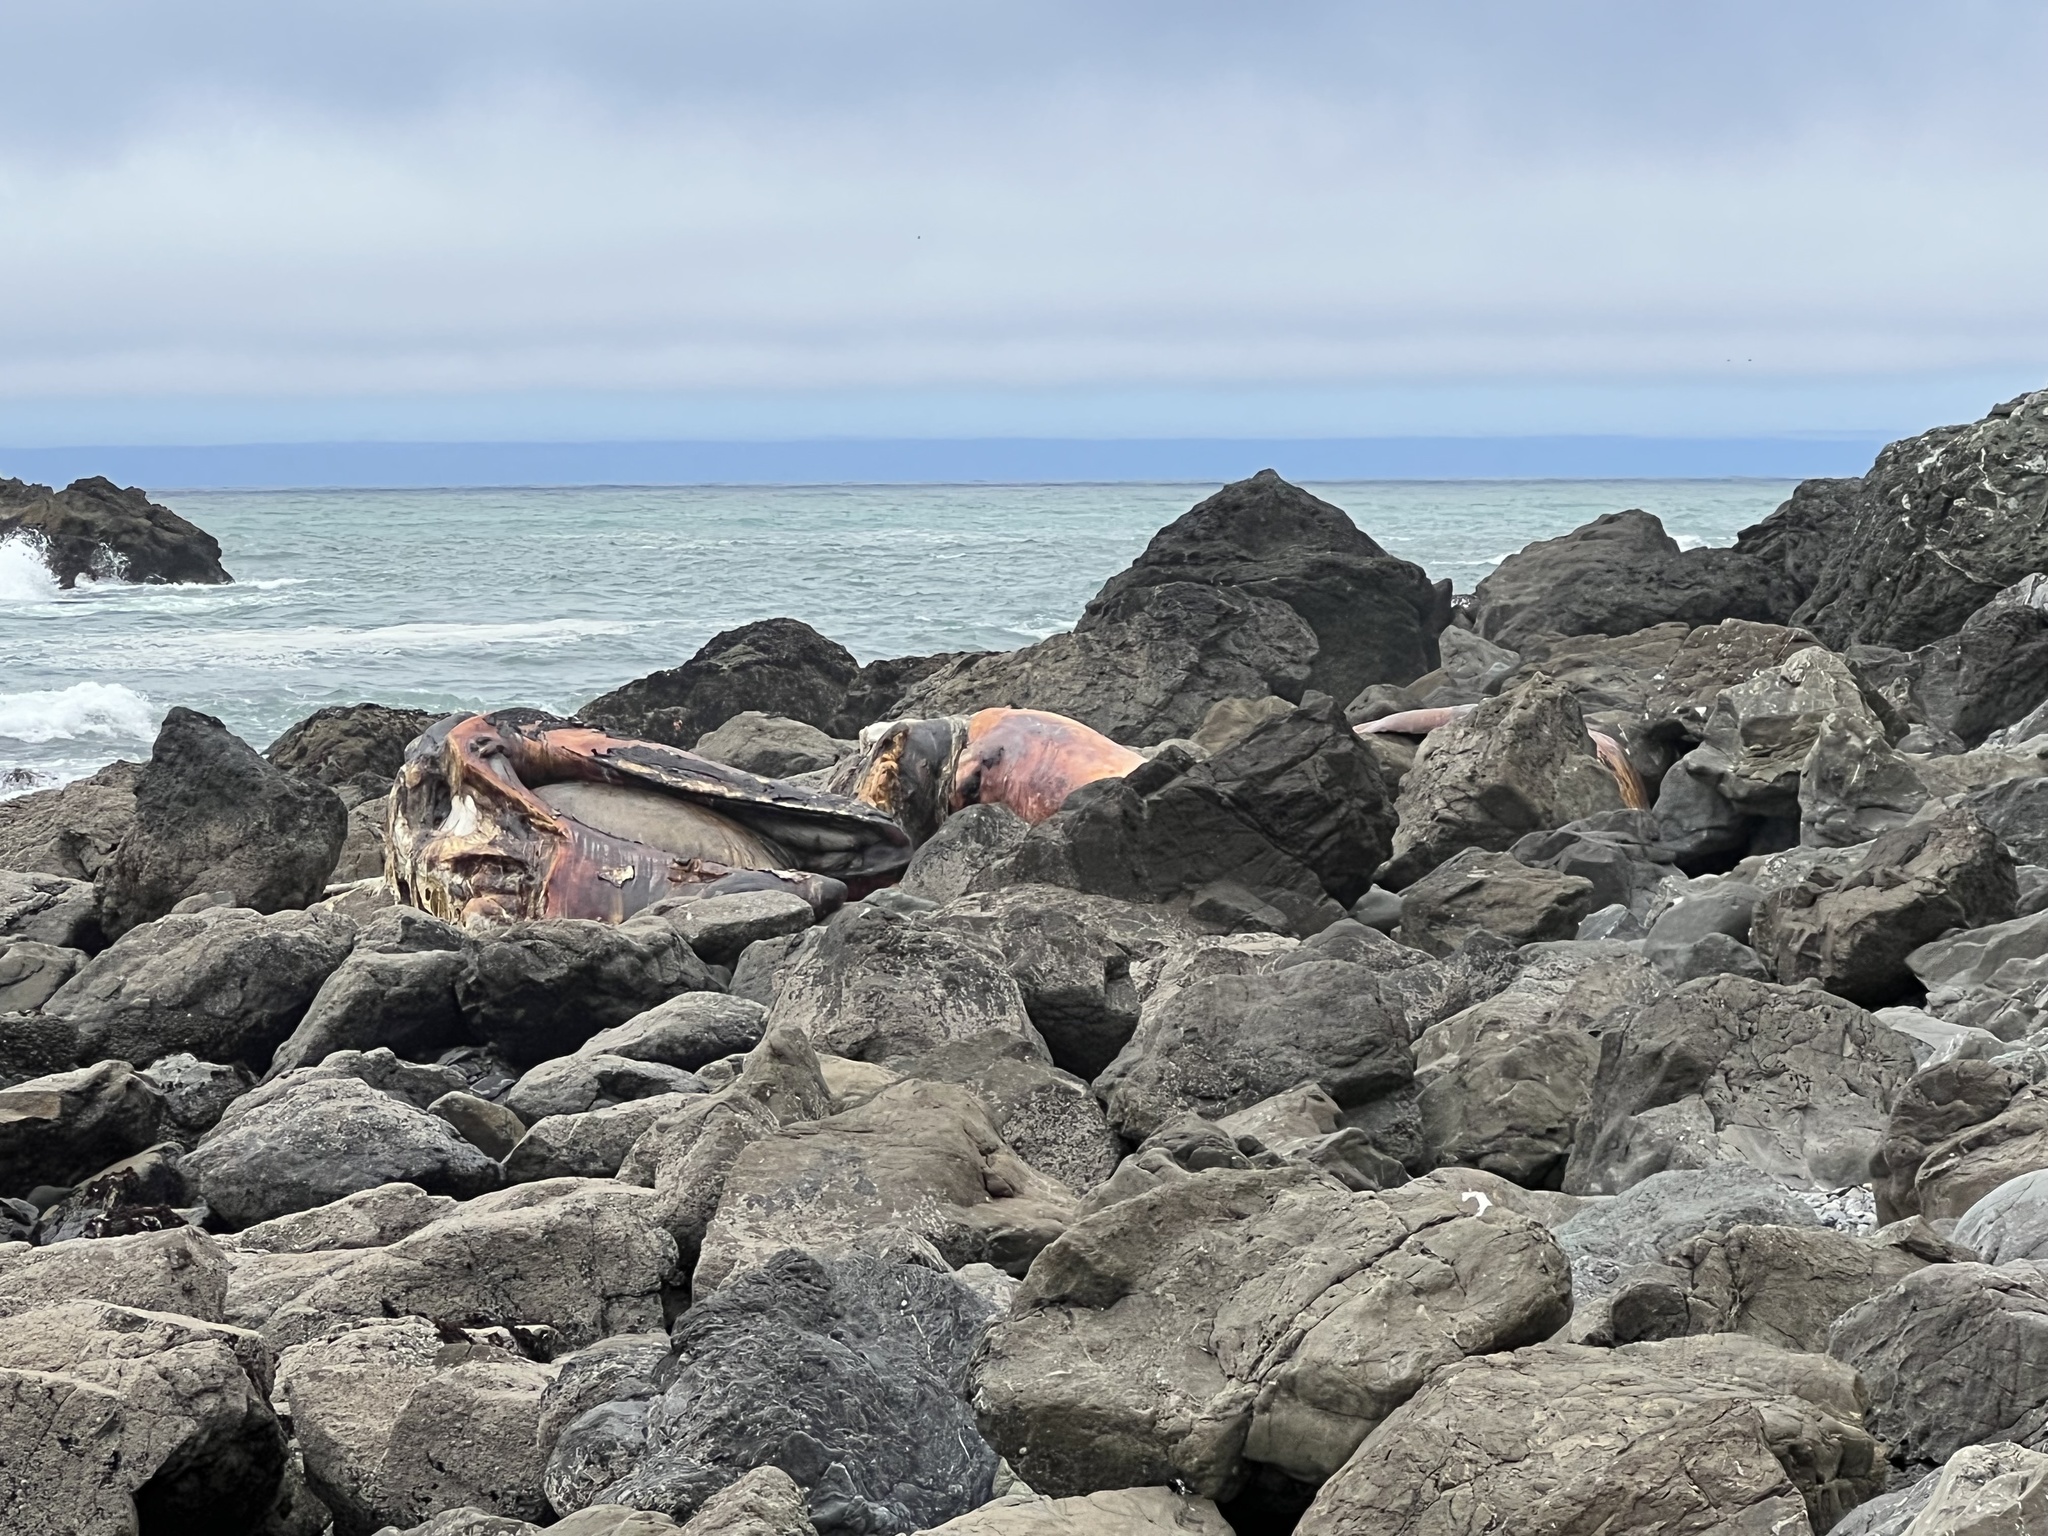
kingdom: Animalia
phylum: Chordata
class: Mammalia
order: Cetacea
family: Eschrichtiidae
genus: Eschrichtius
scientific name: Eschrichtius robustus
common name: Gray whale
